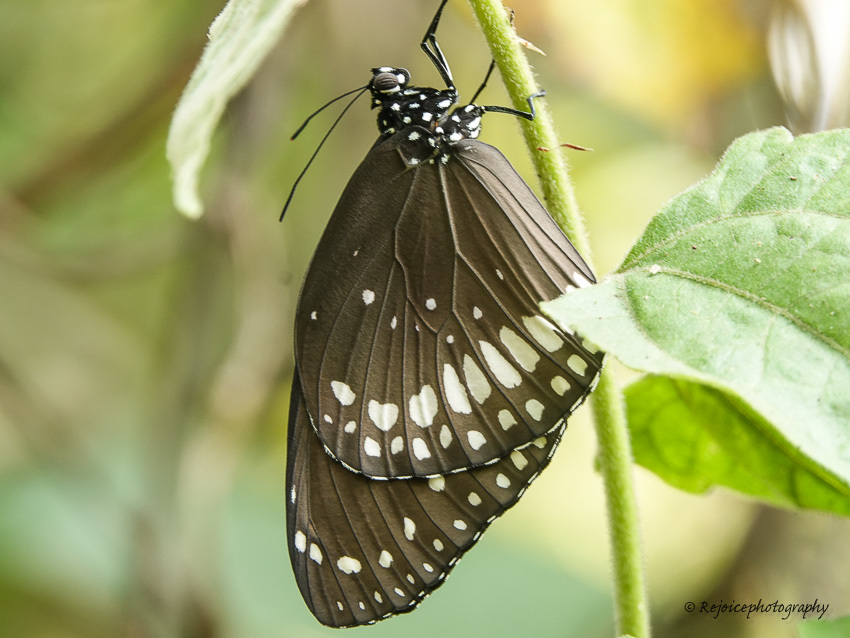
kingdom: Animalia
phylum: Arthropoda
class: Insecta
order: Lepidoptera
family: Nymphalidae
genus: Euploea
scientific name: Euploea core
